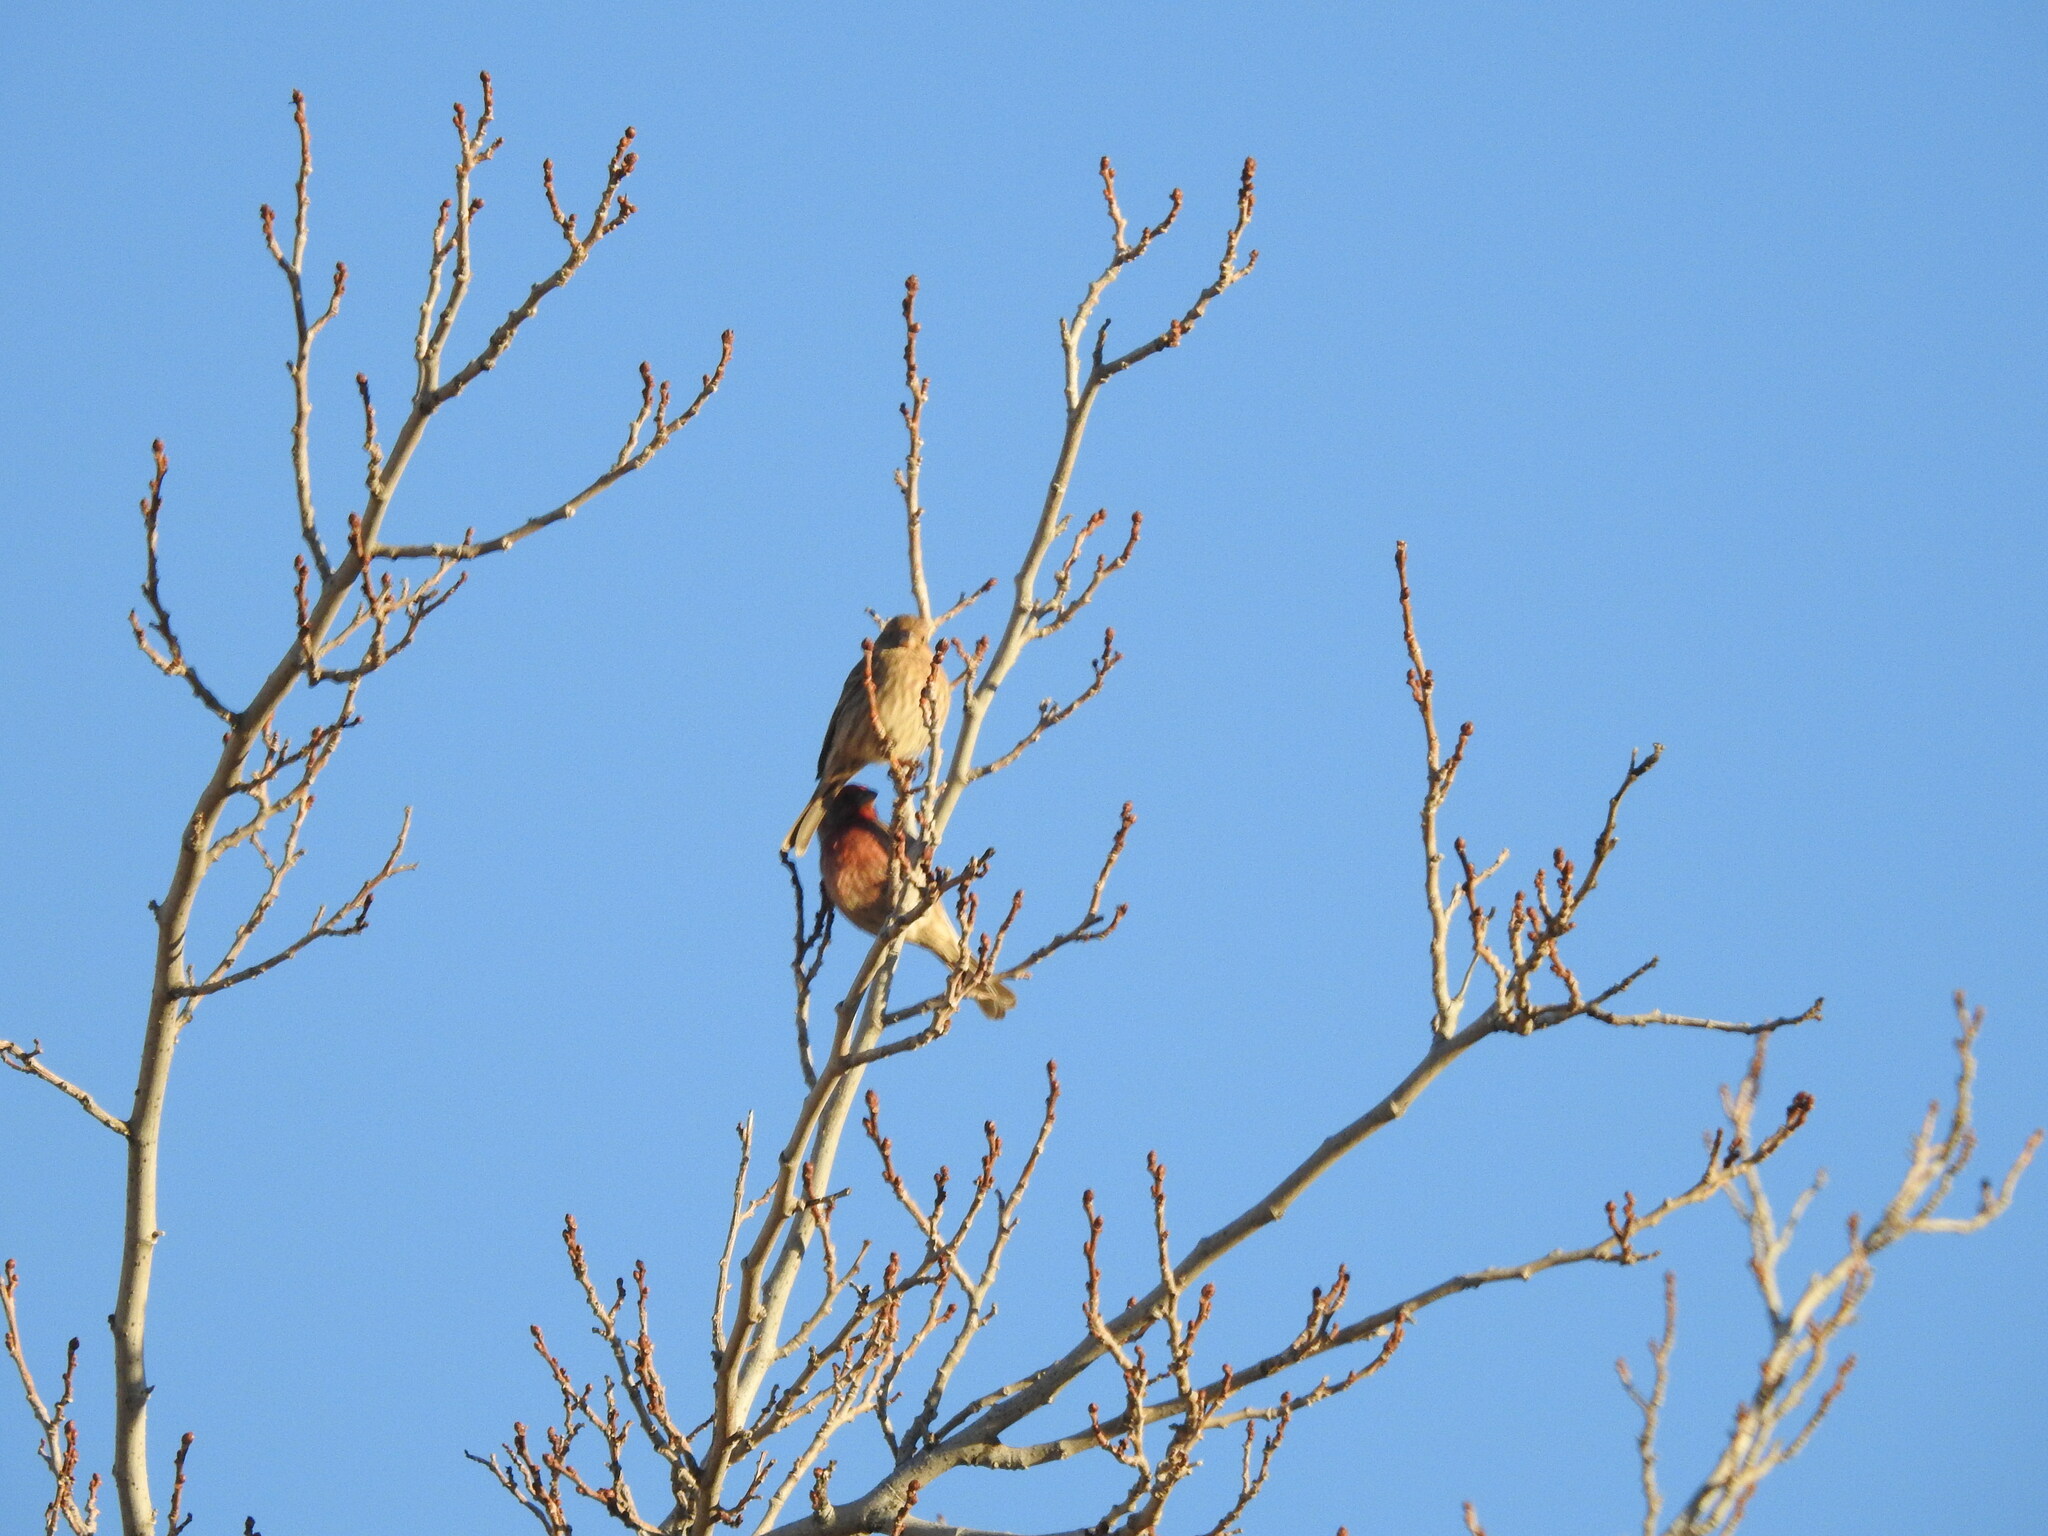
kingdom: Animalia
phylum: Chordata
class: Aves
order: Passeriformes
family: Fringillidae
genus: Haemorhous
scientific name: Haemorhous mexicanus
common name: House finch
